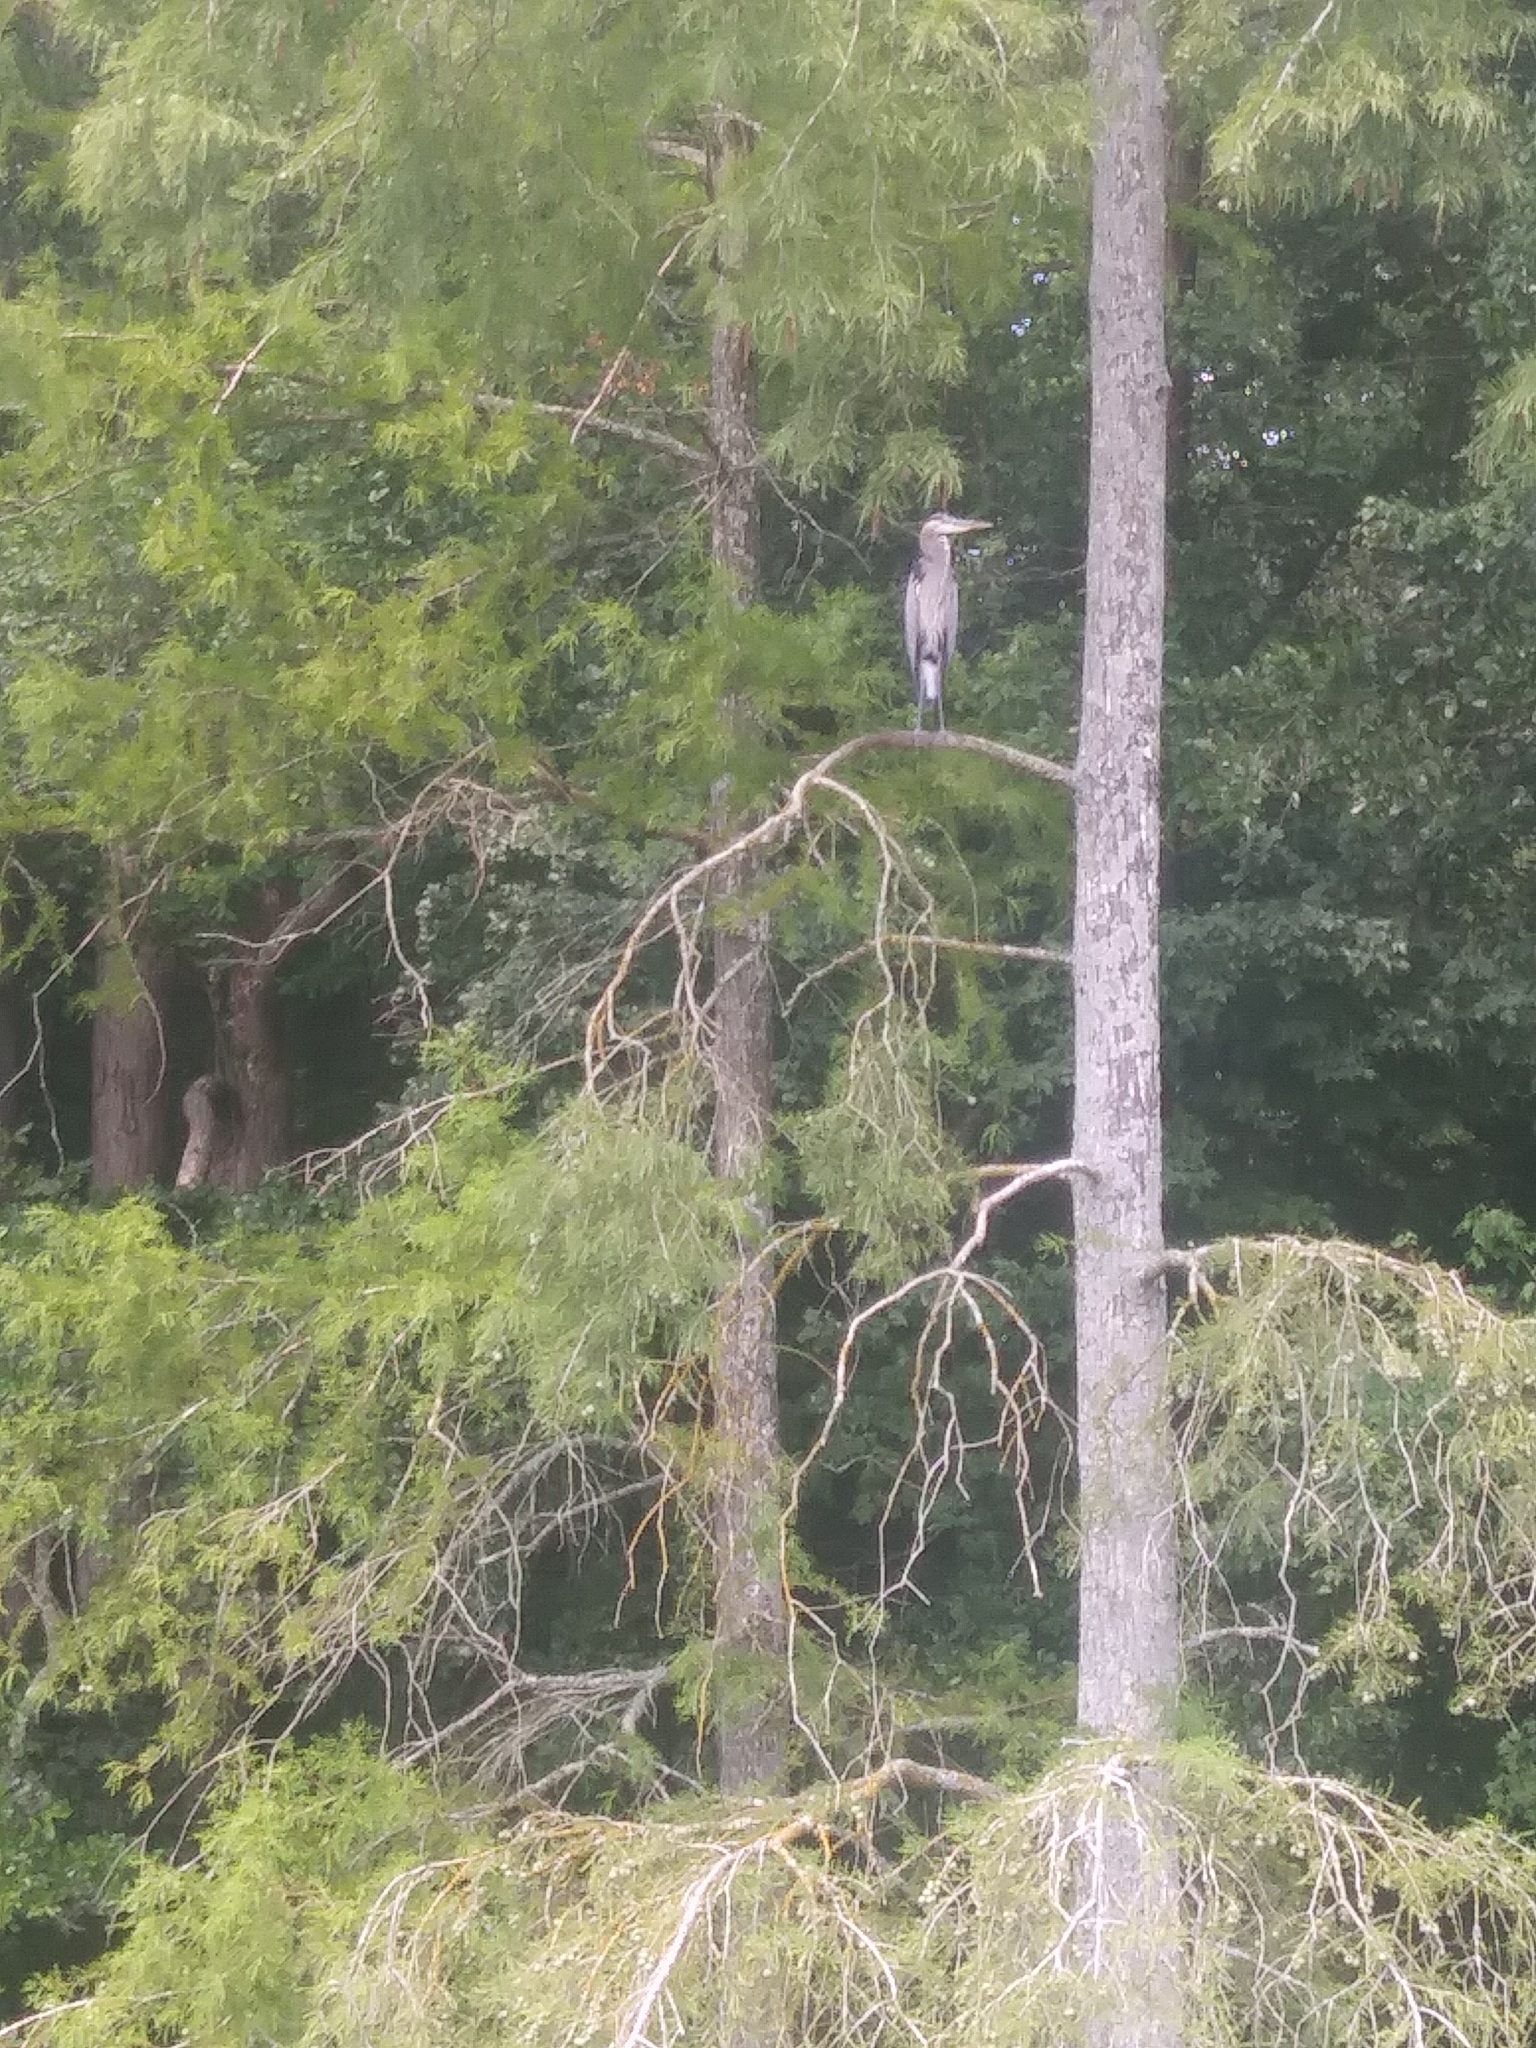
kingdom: Animalia
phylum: Chordata
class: Aves
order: Pelecaniformes
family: Ardeidae
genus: Ardea
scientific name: Ardea herodias
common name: Great blue heron
